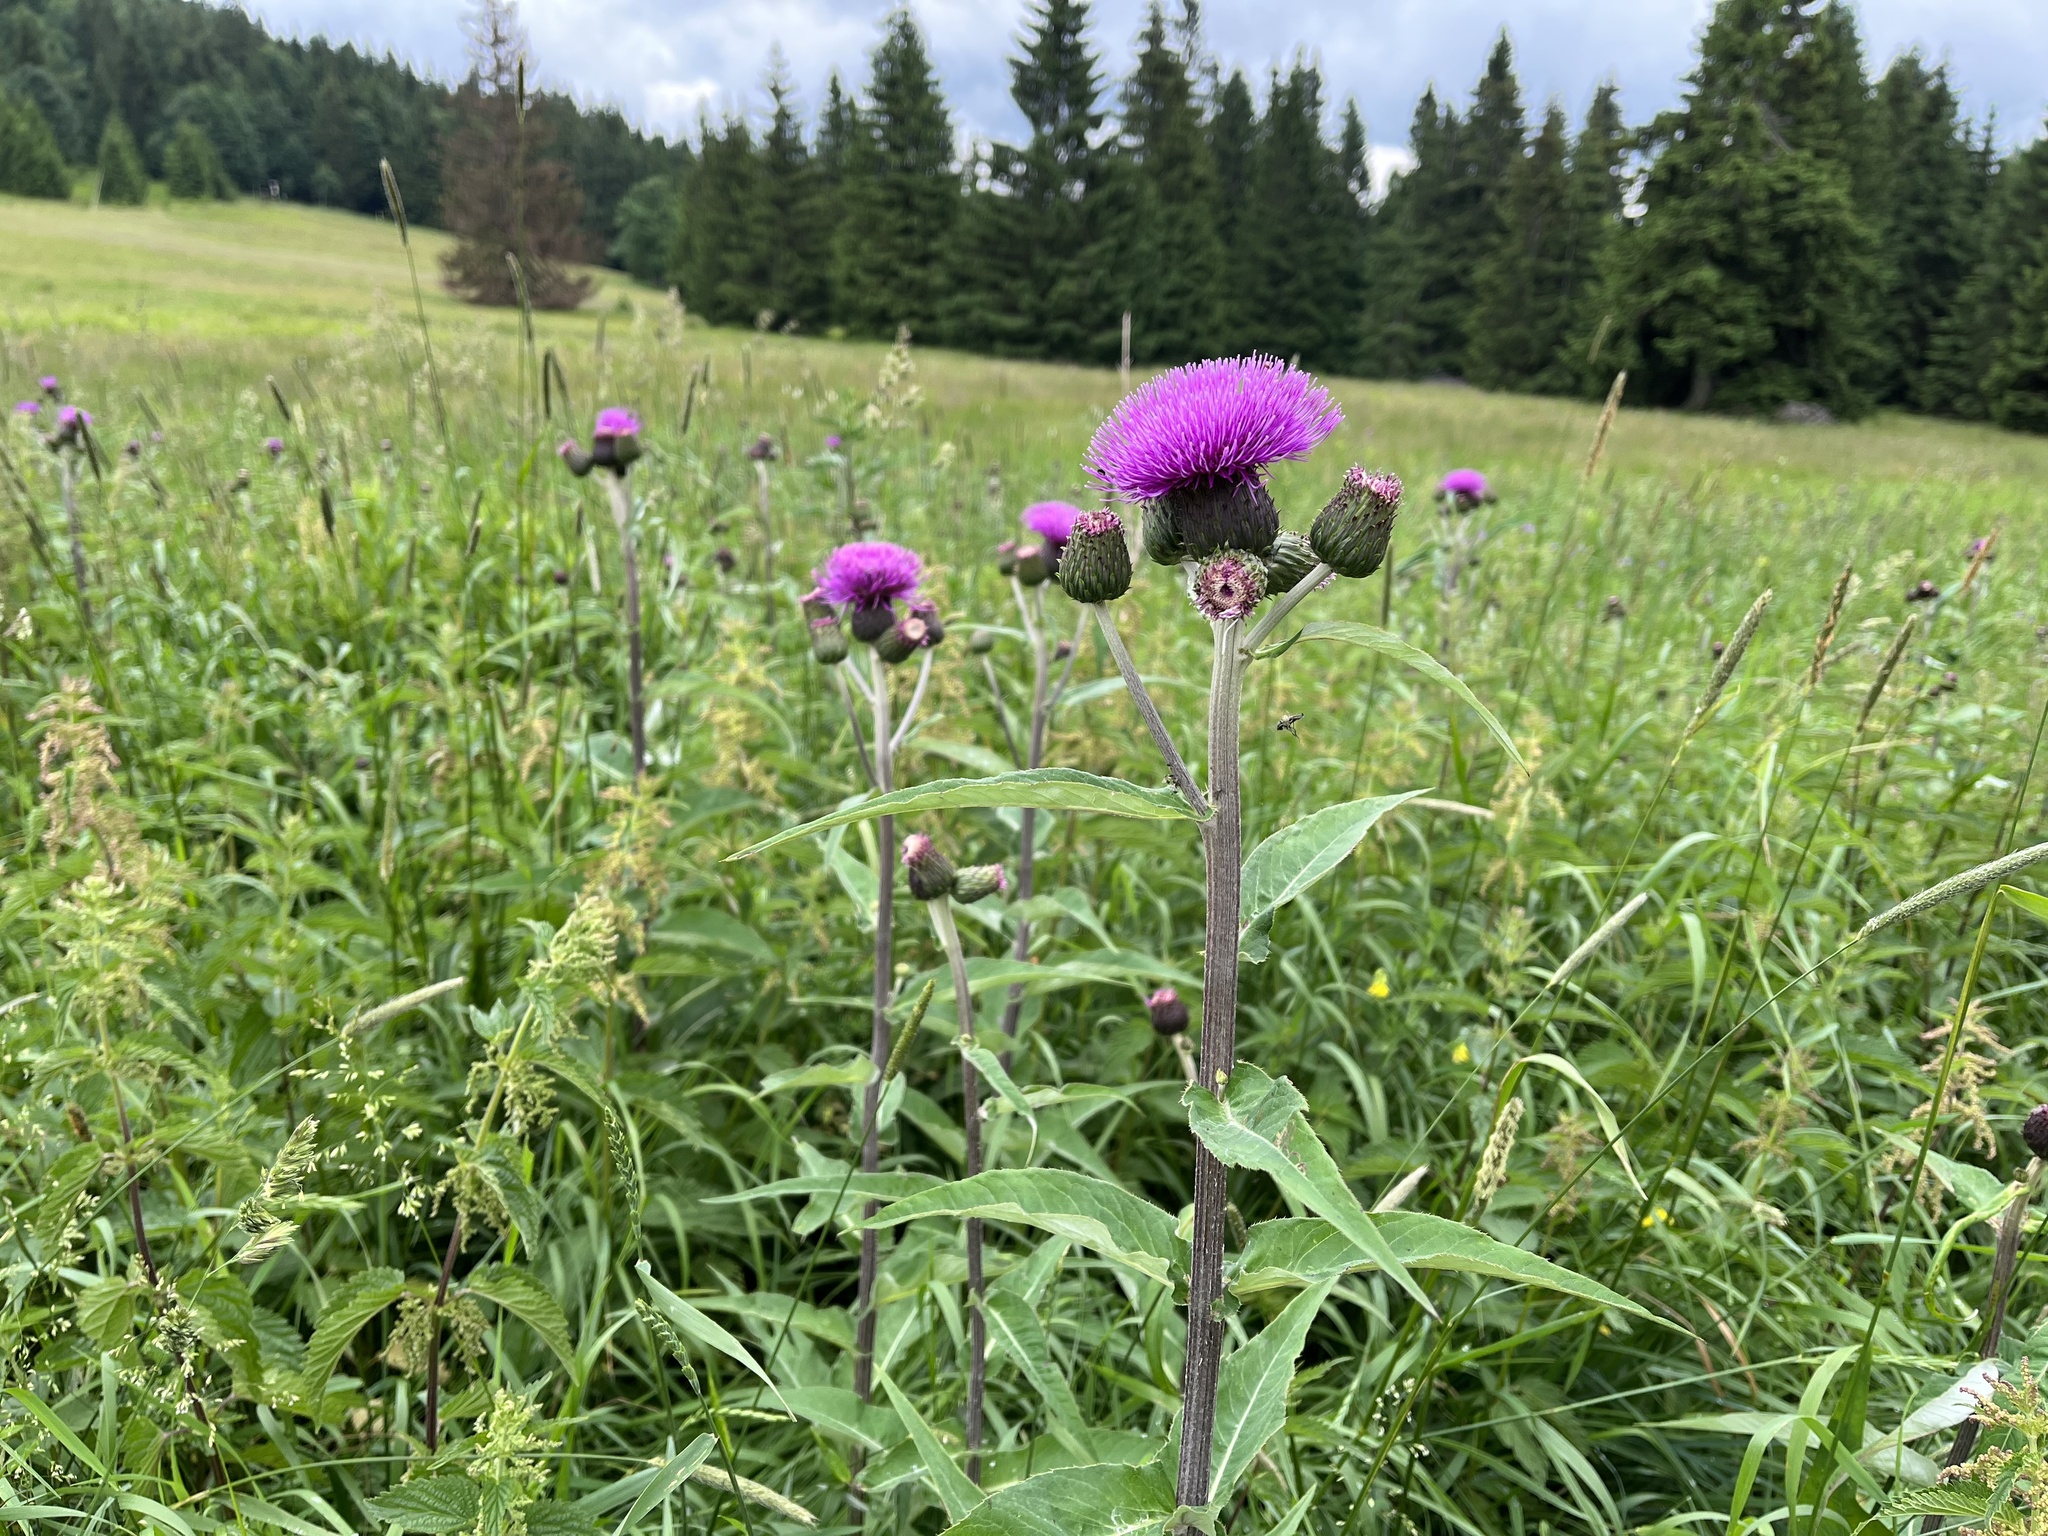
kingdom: Plantae
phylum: Tracheophyta
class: Magnoliopsida
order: Asterales
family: Asteraceae
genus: Cirsium
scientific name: Cirsium heterophyllum
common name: Melancholy thistle
